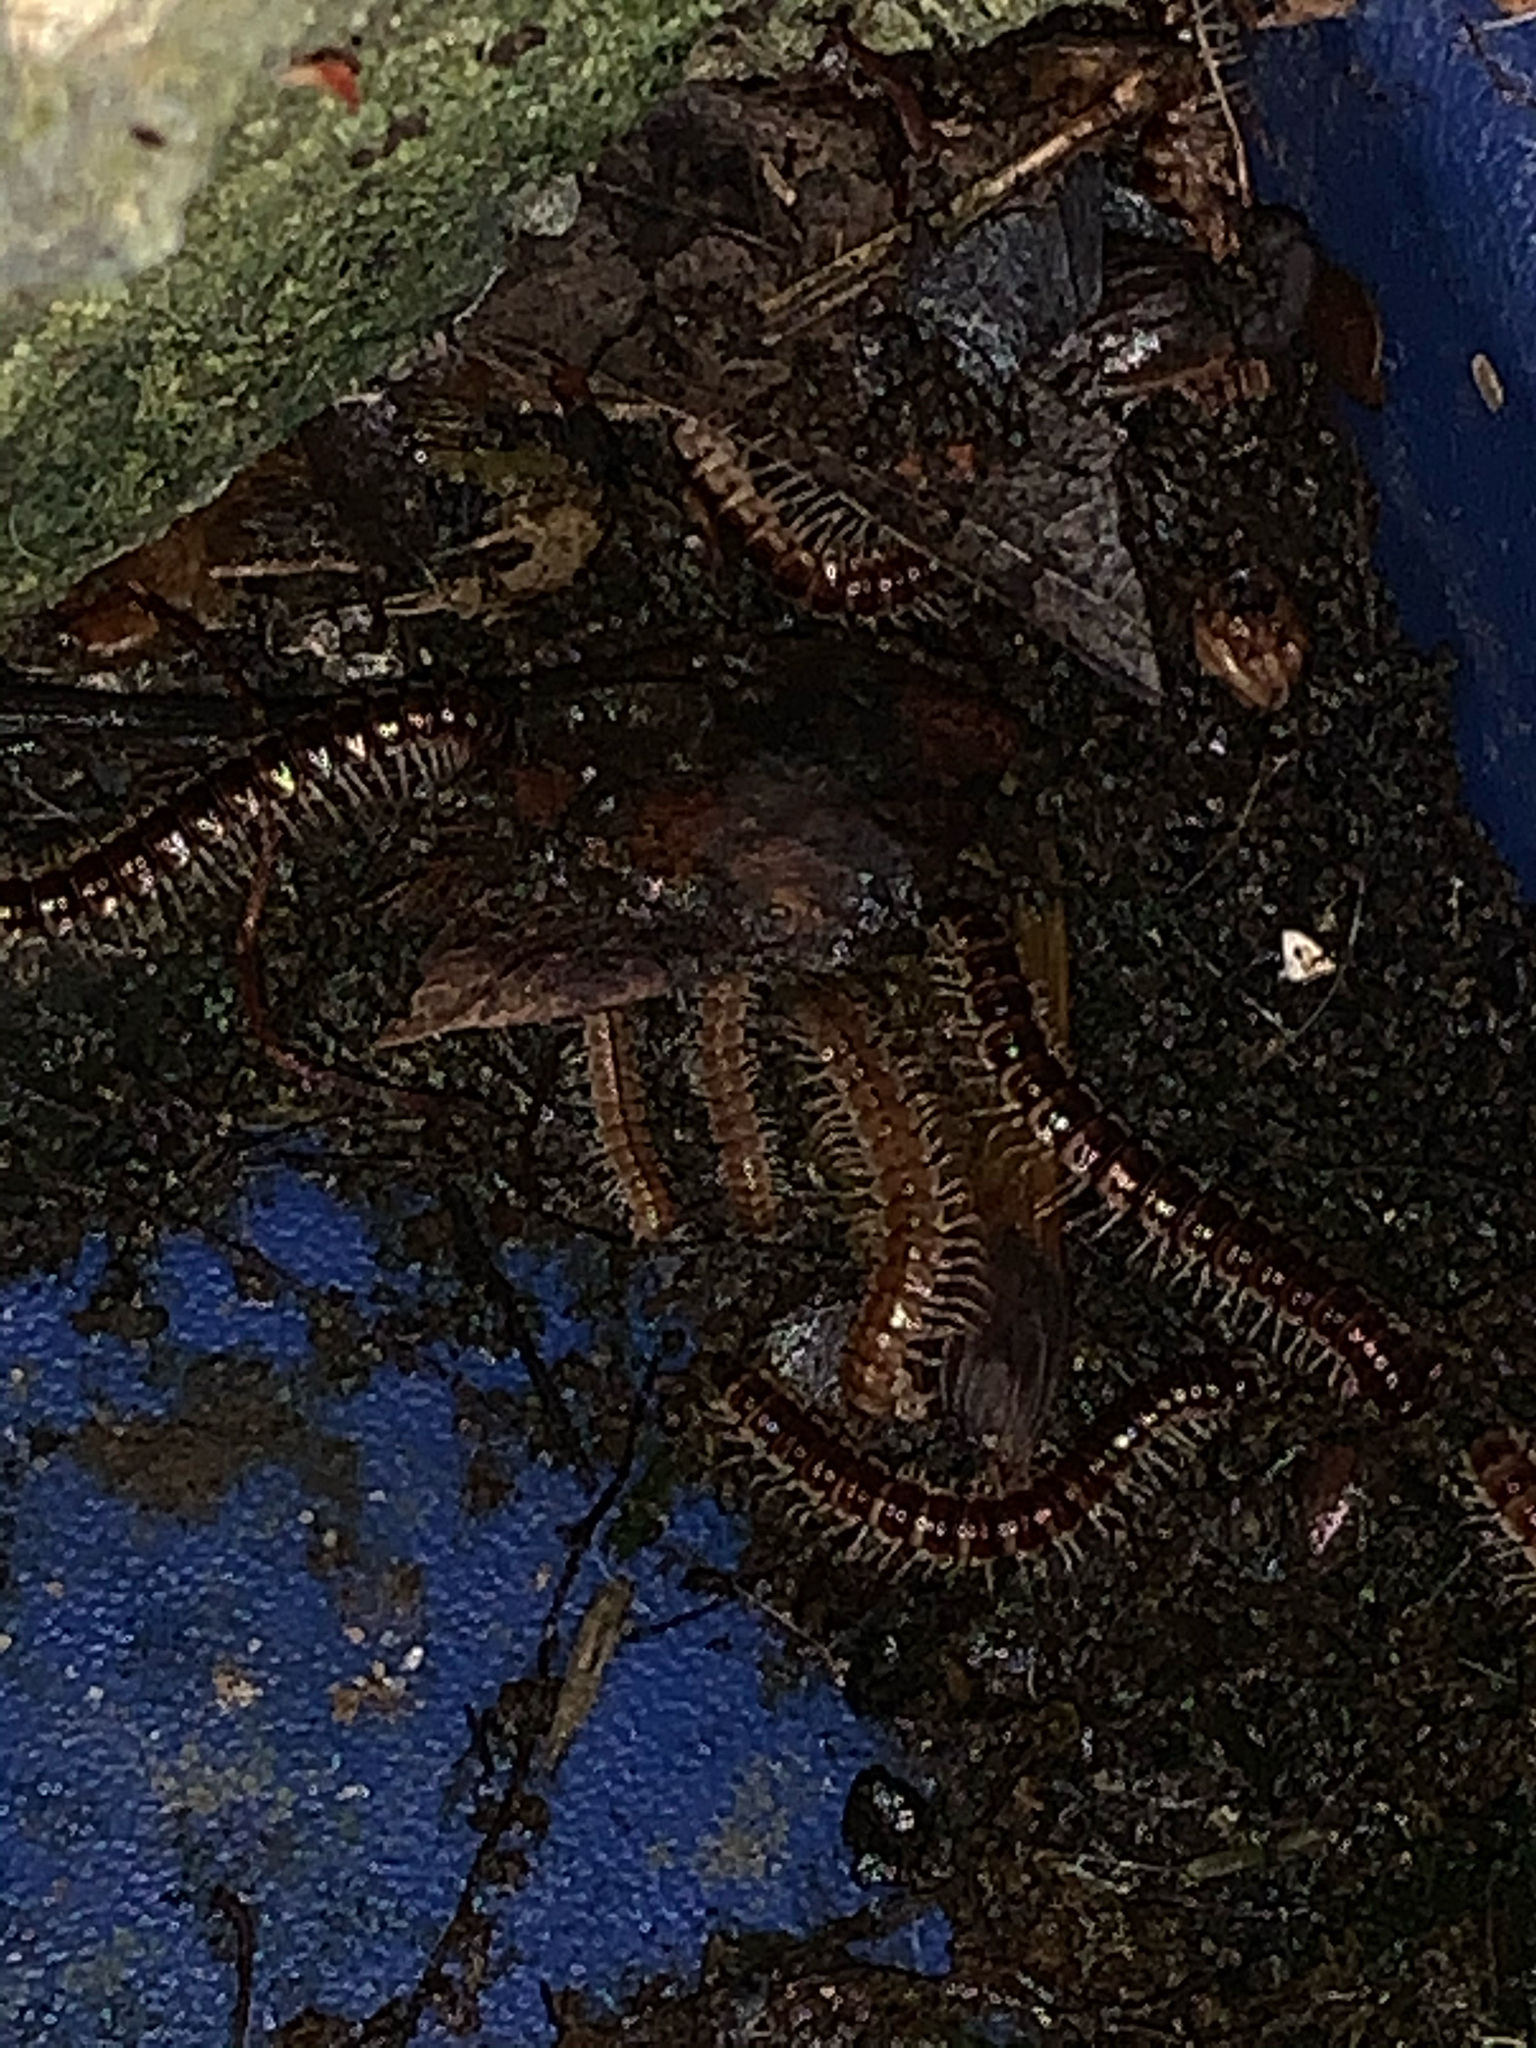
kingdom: Animalia
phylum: Arthropoda
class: Diplopoda
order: Polydesmida
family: Paradoxosomatidae
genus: Oxidus
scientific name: Oxidus gracilis
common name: Greenhouse millipede
